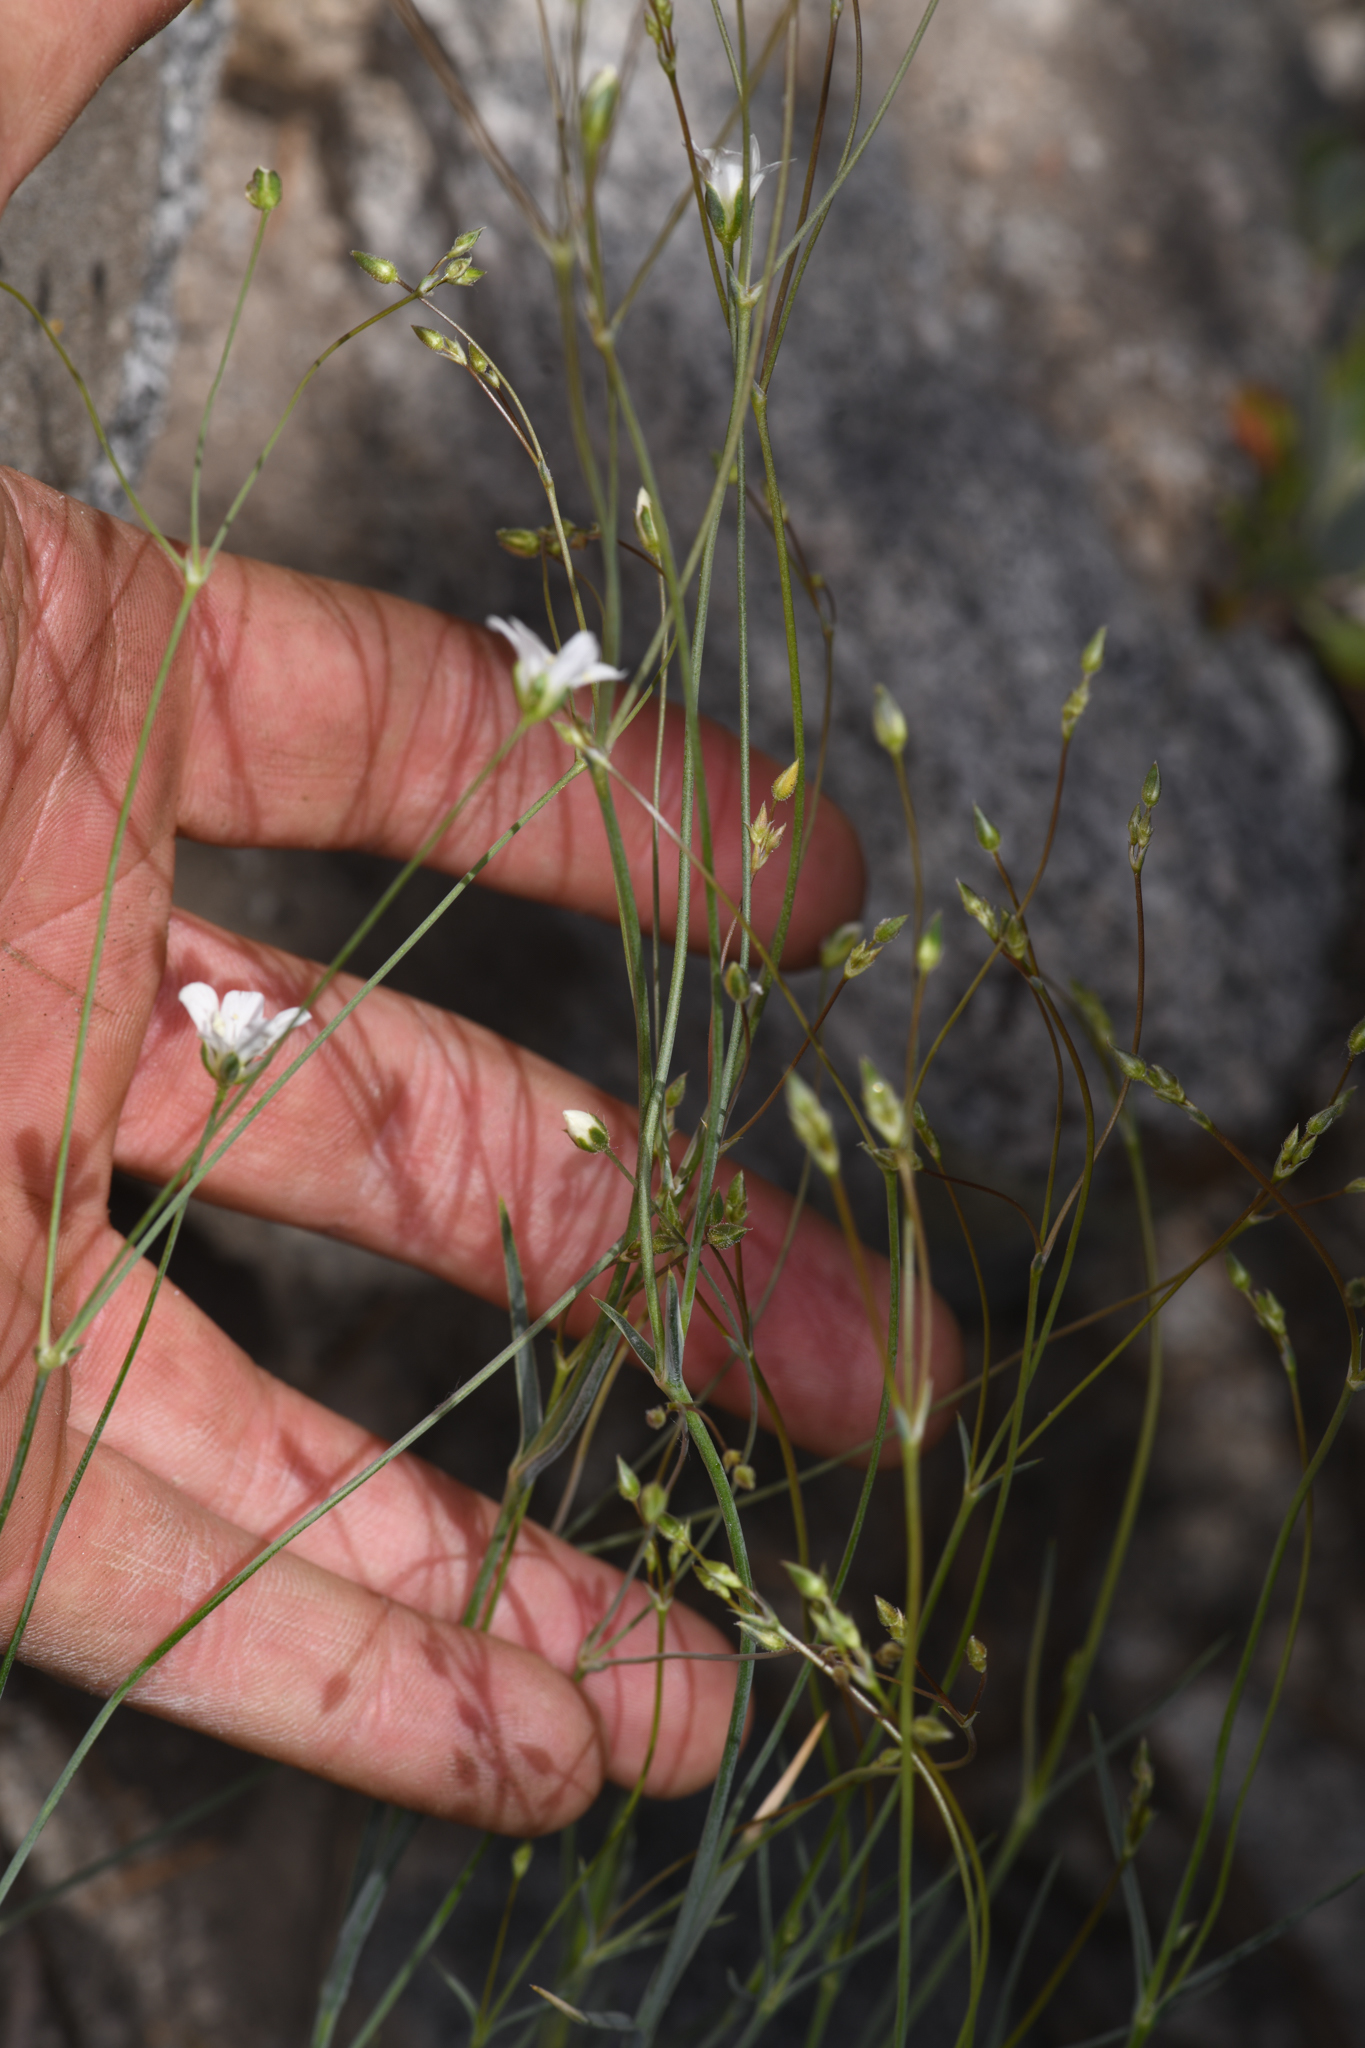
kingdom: Plantae
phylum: Tracheophyta
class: Magnoliopsida
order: Caryophyllales
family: Caryophyllaceae
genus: Eremogone
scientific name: Eremogone ferrisiae
